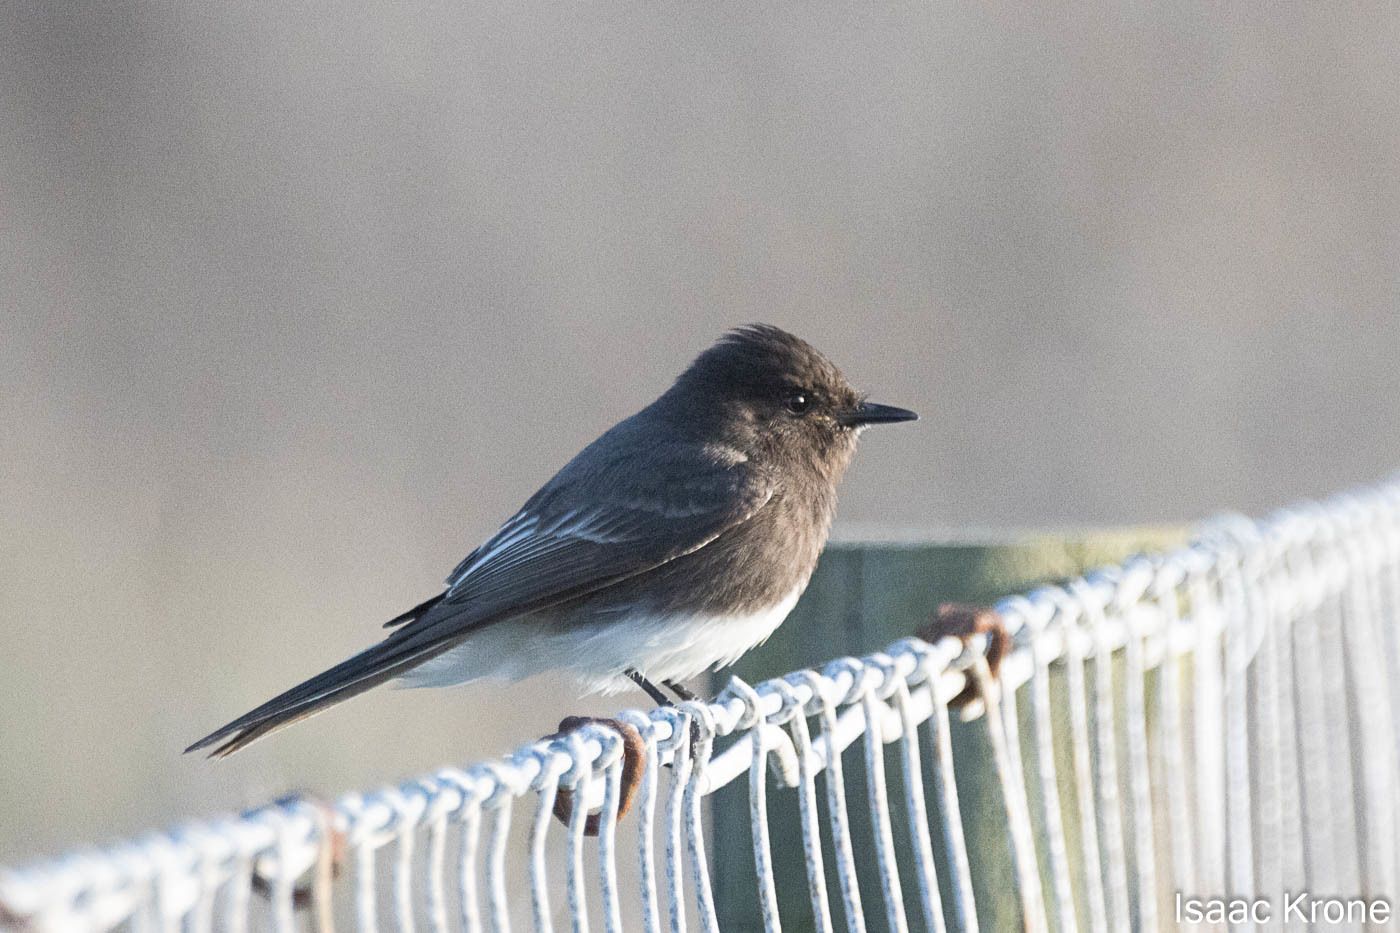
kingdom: Animalia
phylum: Chordata
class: Aves
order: Passeriformes
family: Tyrannidae
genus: Sayornis
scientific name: Sayornis nigricans
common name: Black phoebe
